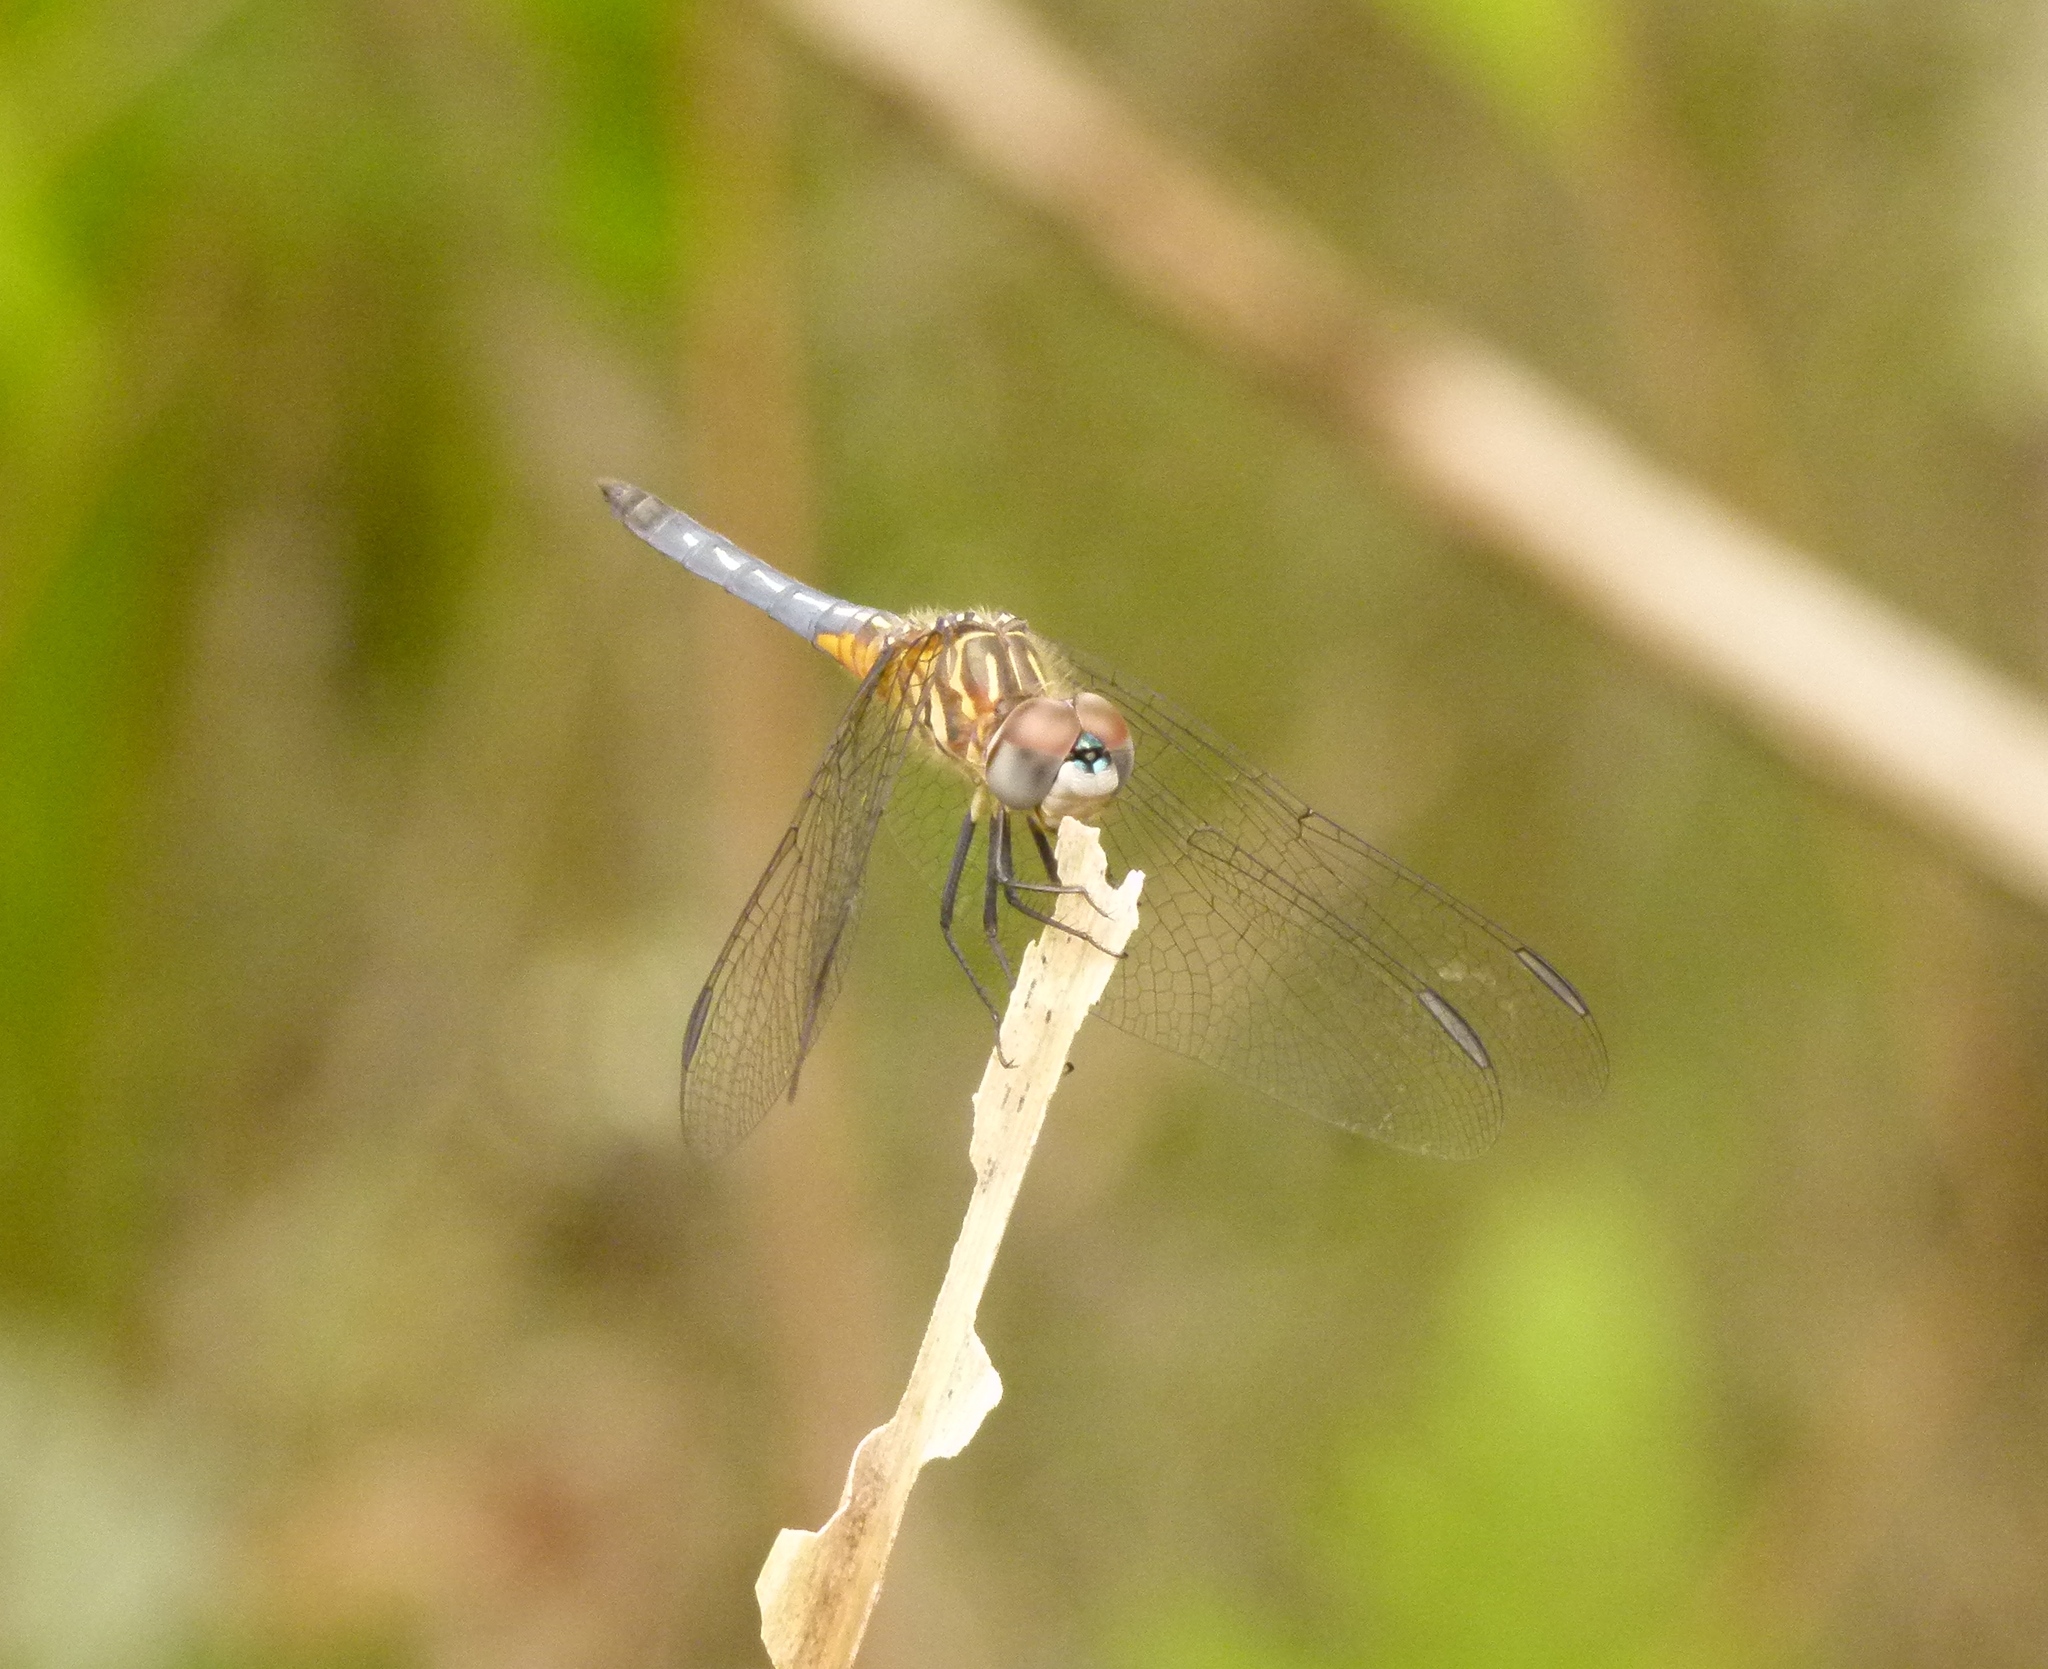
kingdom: Animalia
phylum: Arthropoda
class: Insecta
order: Odonata
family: Libellulidae
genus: Pachydiplax
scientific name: Pachydiplax longipennis
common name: Blue dasher
